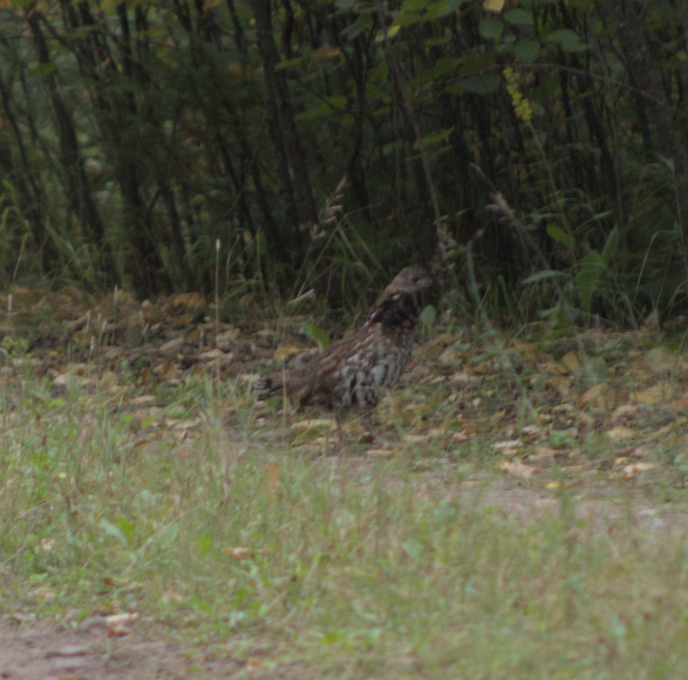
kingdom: Animalia
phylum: Chordata
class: Aves
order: Galliformes
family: Phasianidae
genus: Bonasa
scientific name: Bonasa umbellus
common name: Ruffed grouse
